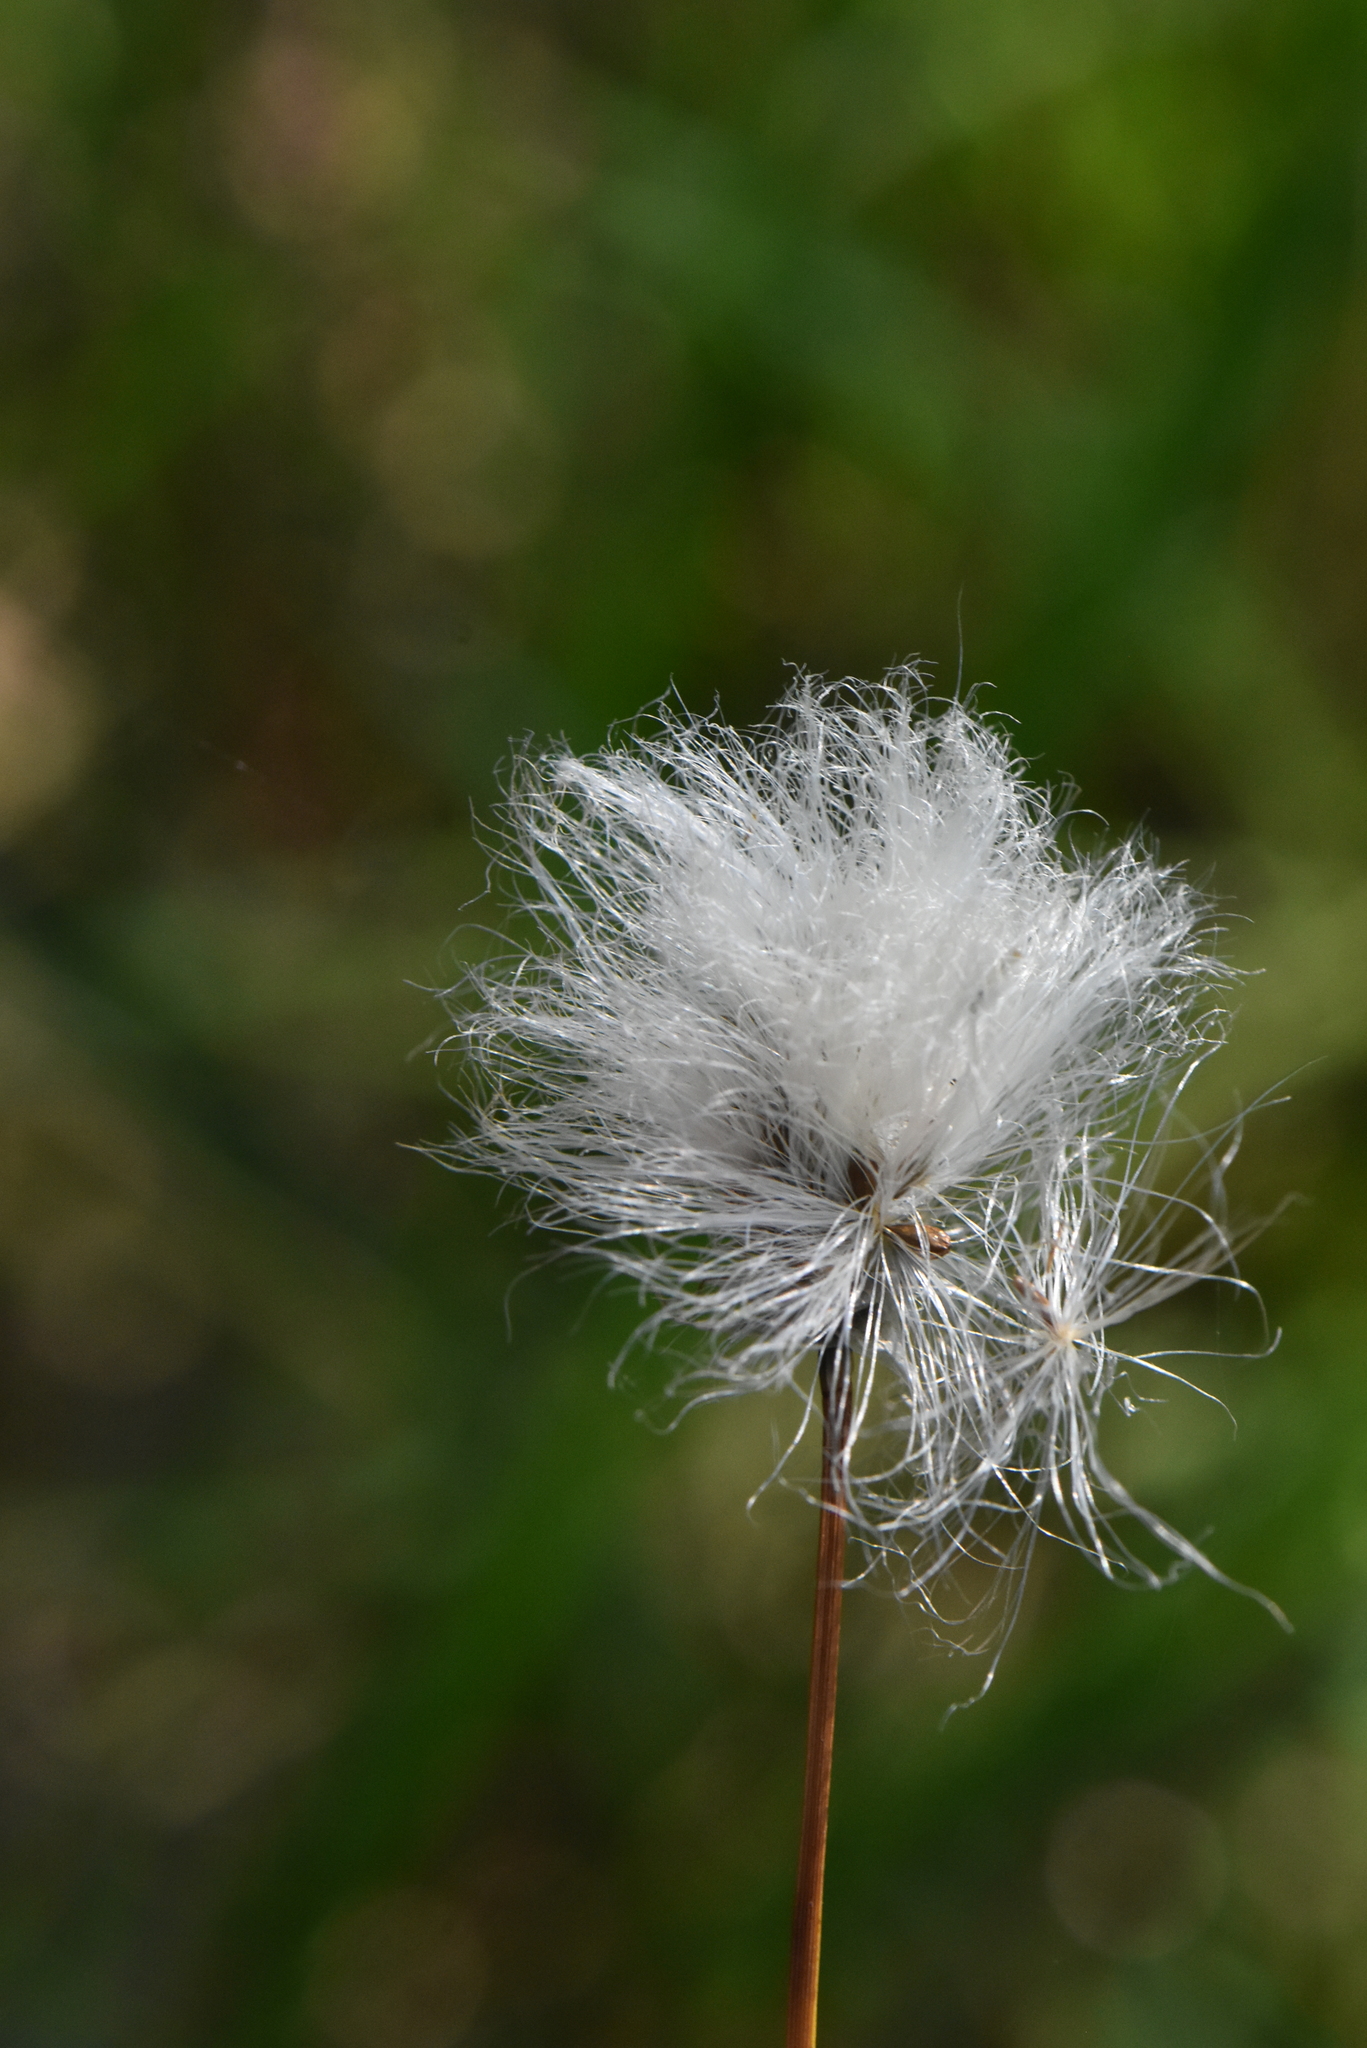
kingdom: Plantae
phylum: Tracheophyta
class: Liliopsida
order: Poales
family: Cyperaceae
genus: Eriophorum
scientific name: Eriophorum vaginatum
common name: Hare's-tail cottongrass
